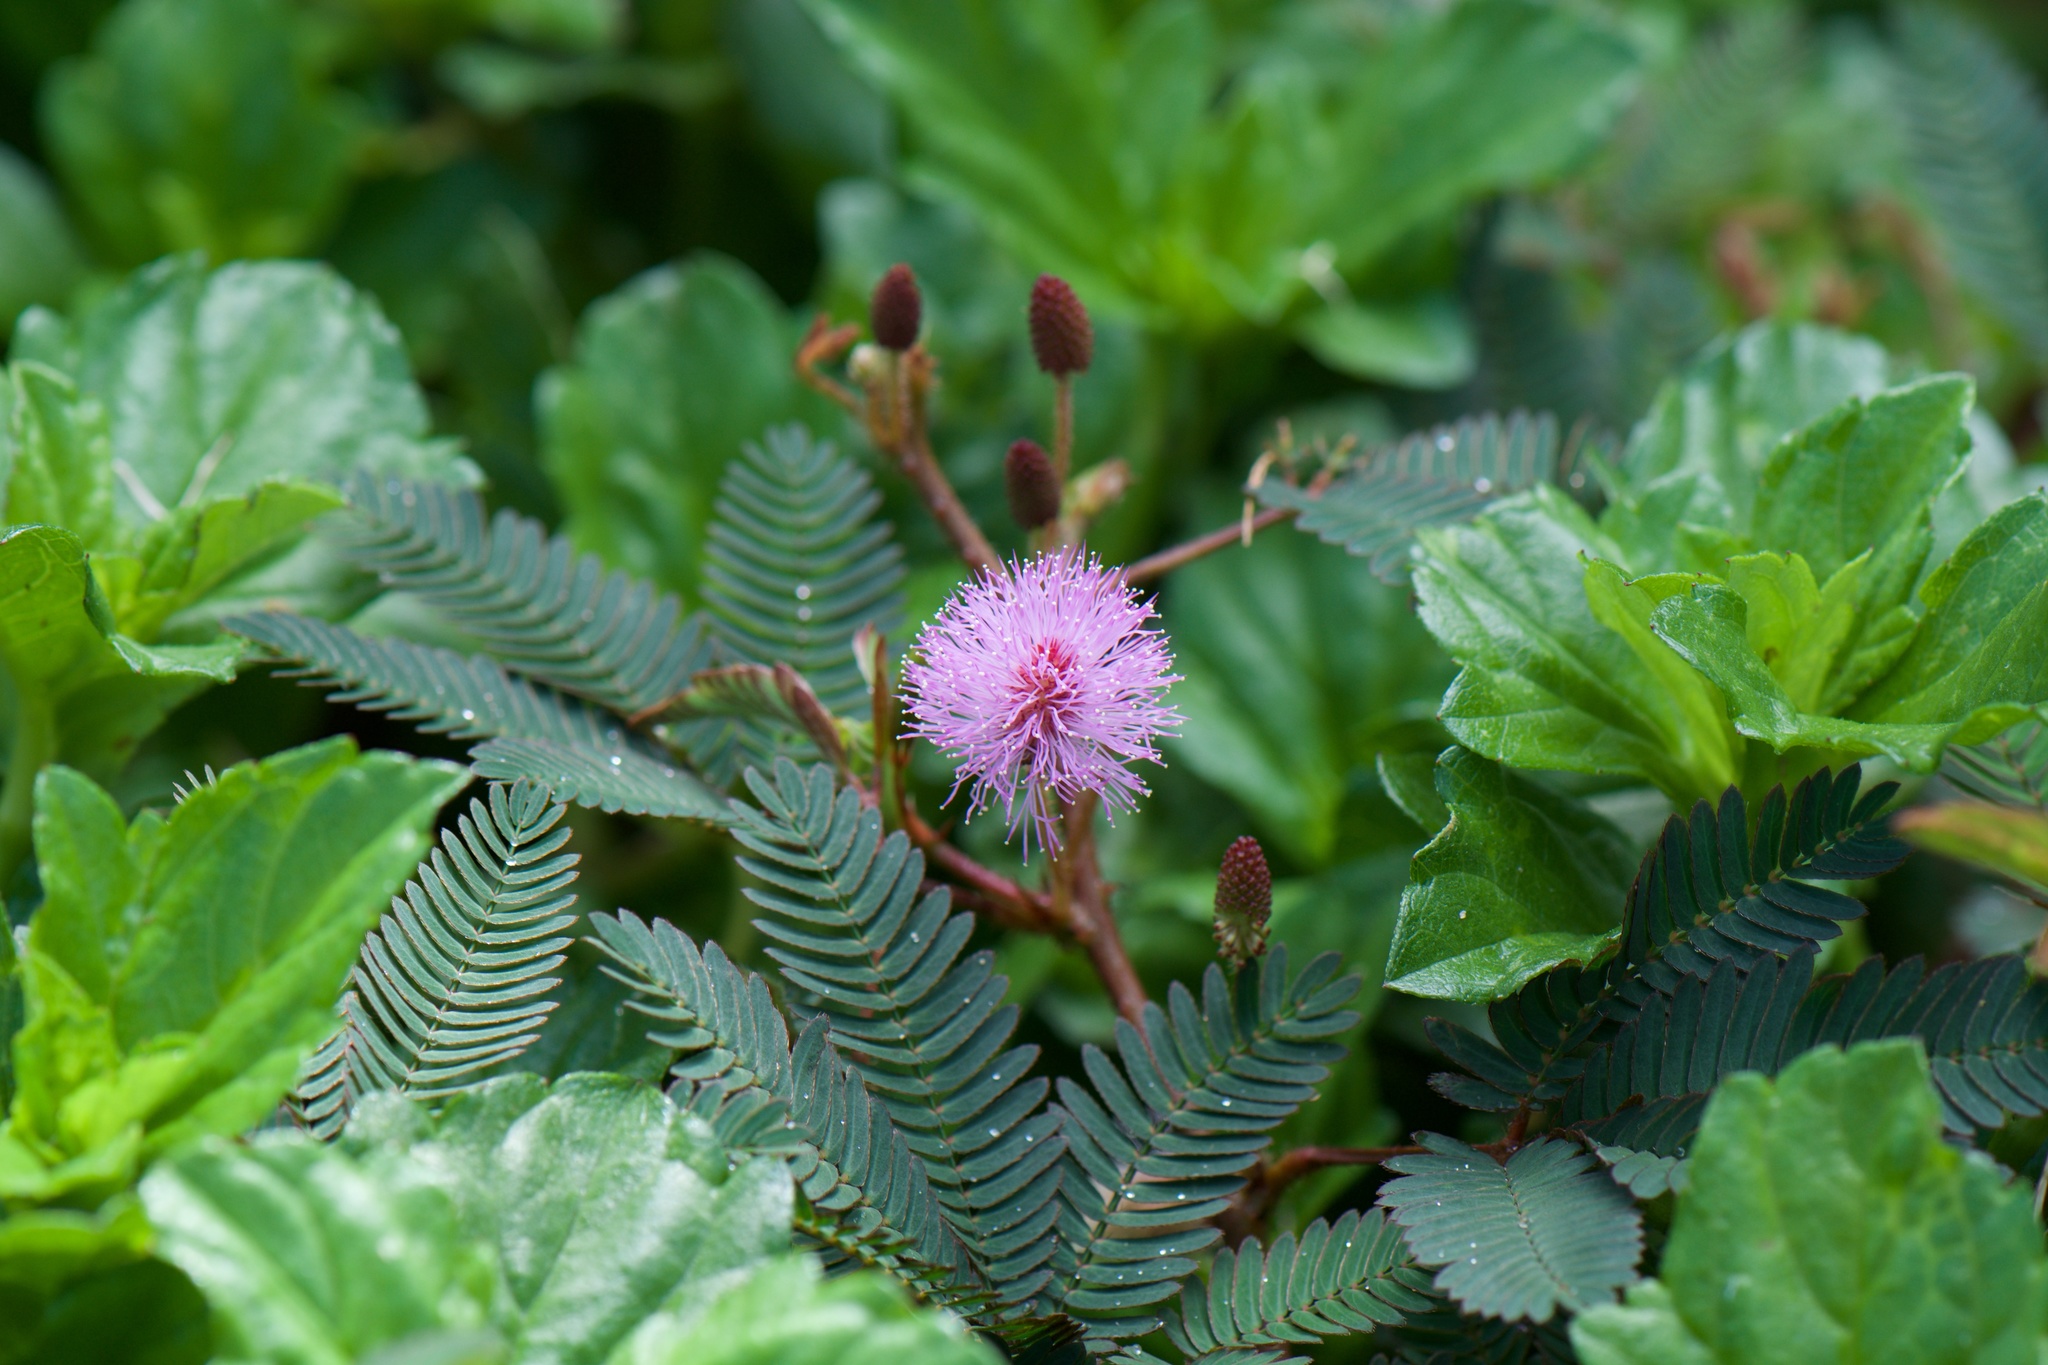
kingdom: Plantae
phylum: Tracheophyta
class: Magnoliopsida
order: Fabales
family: Fabaceae
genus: Mimosa
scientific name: Mimosa pudica
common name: Sensitive plant
